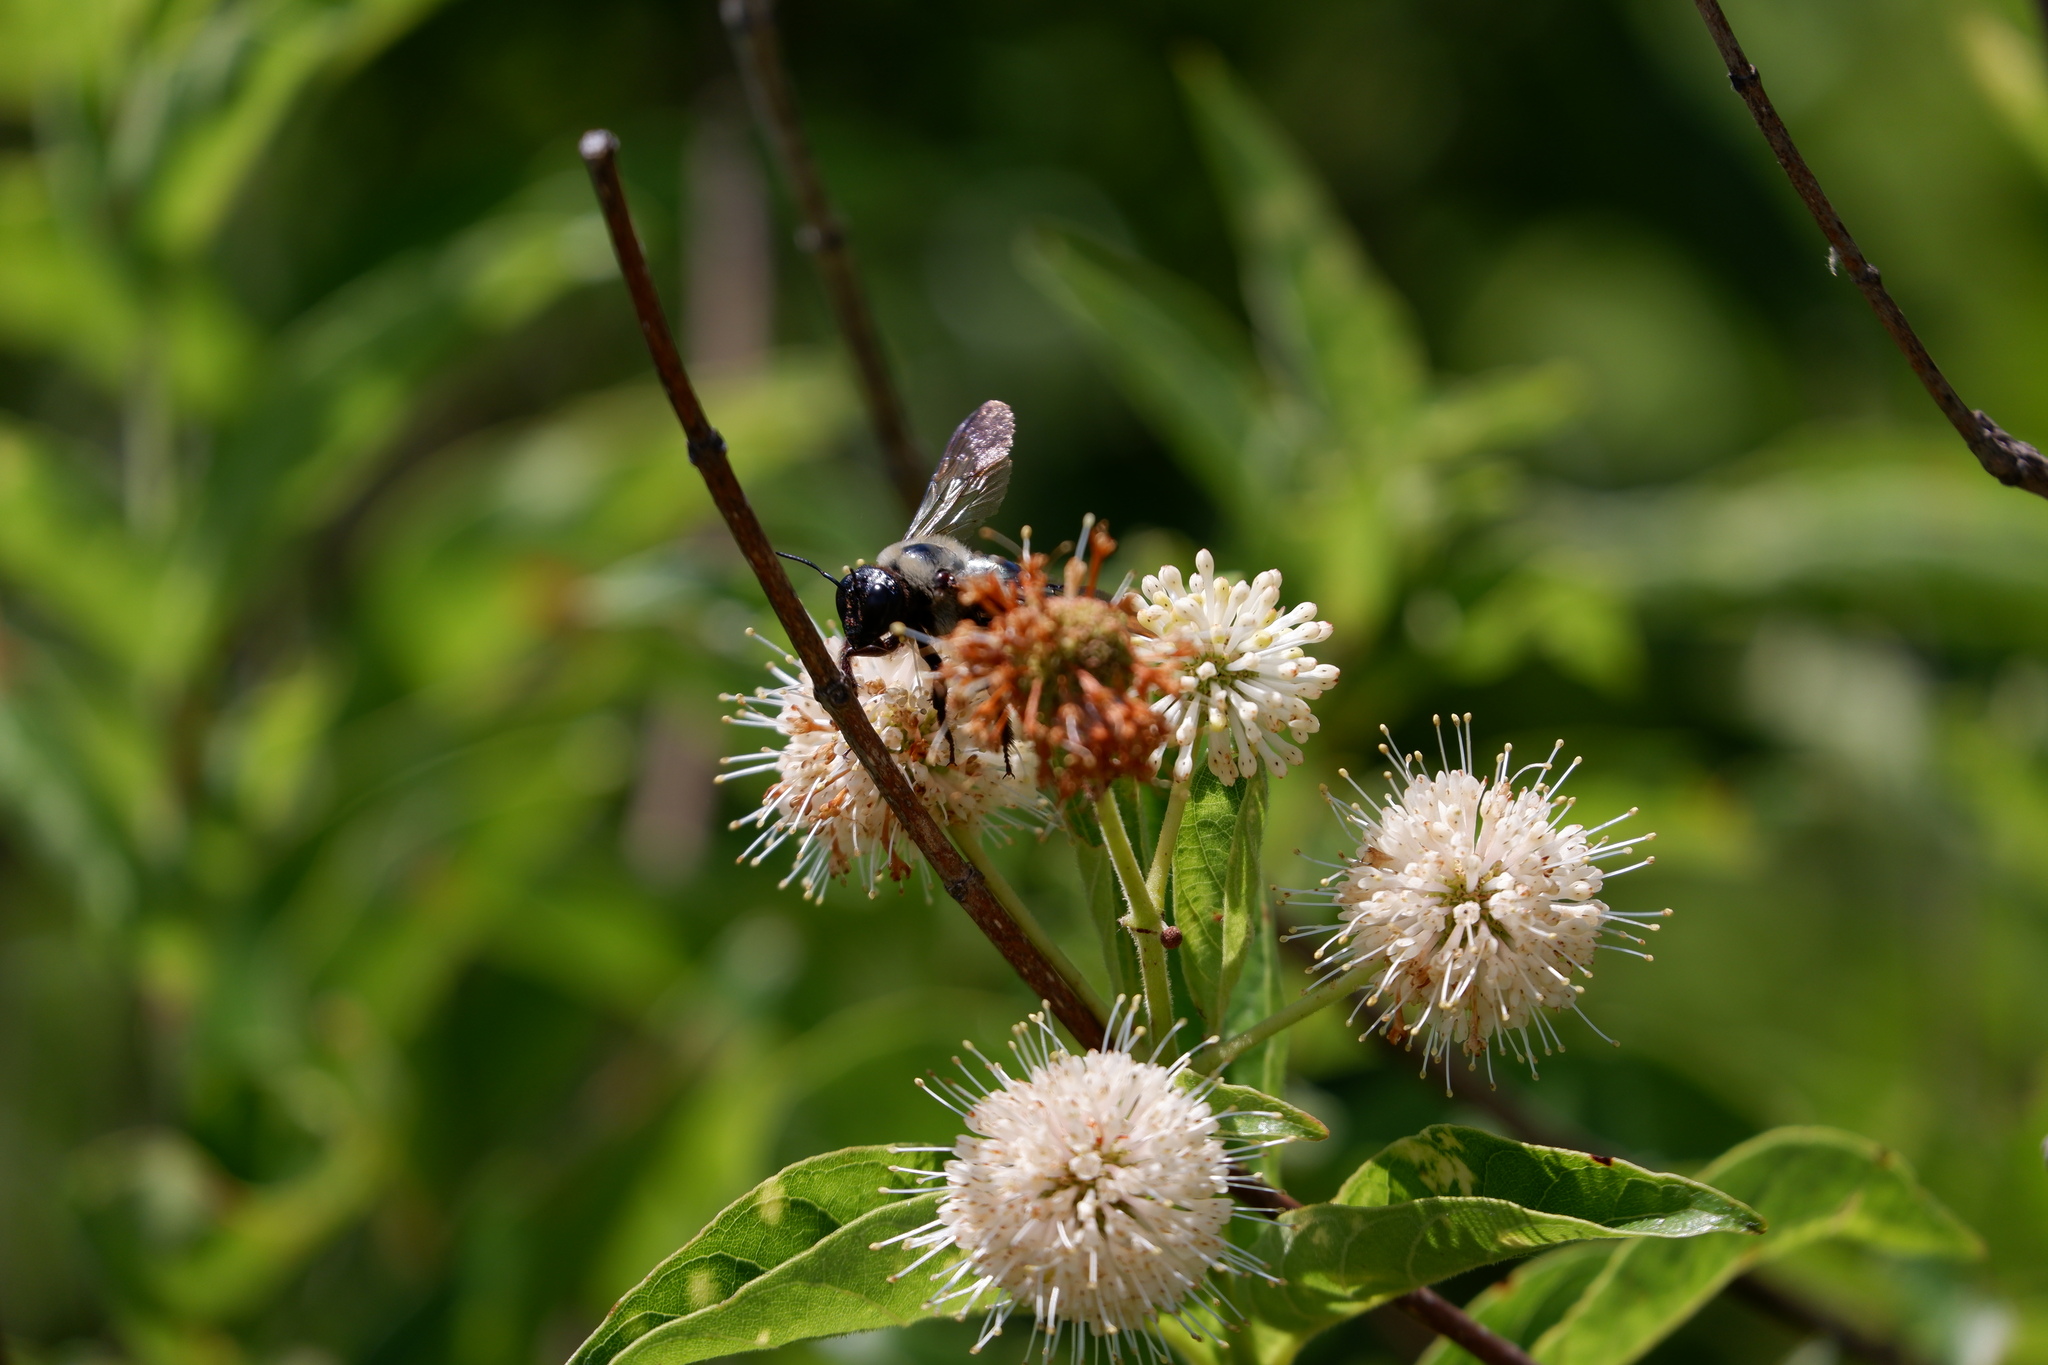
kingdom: Animalia
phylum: Arthropoda
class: Insecta
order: Hymenoptera
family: Apidae
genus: Xylocopa
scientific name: Xylocopa virginica
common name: Carpenter bee
